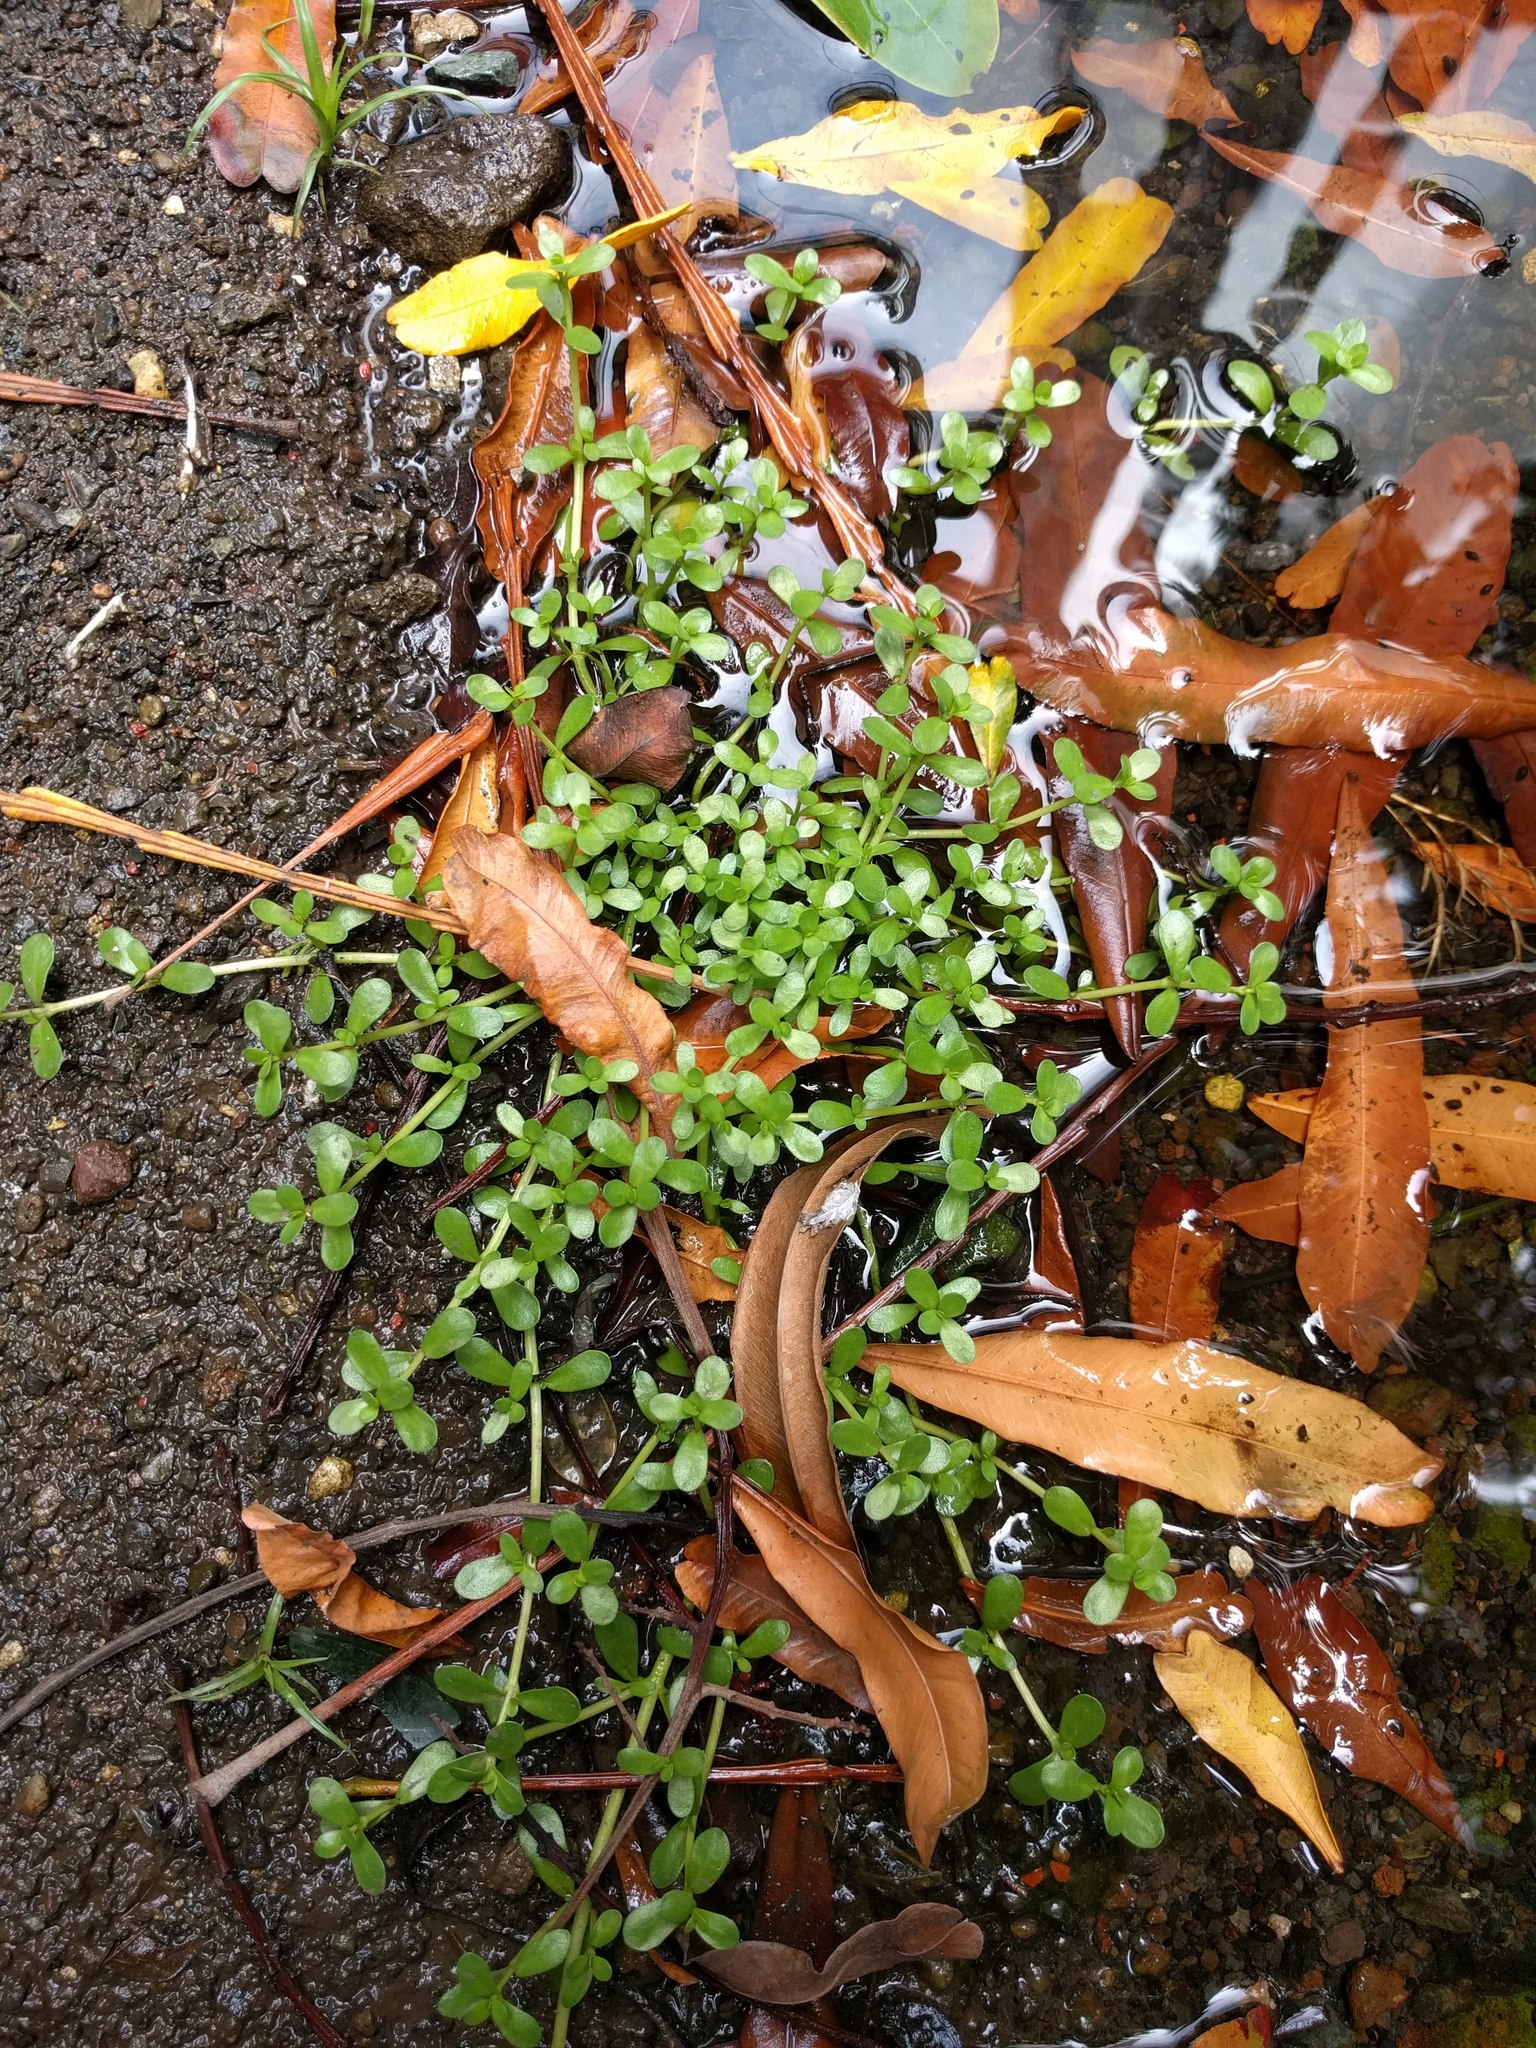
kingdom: Plantae
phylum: Tracheophyta
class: Magnoliopsida
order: Lamiales
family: Plantaginaceae
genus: Bacopa
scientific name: Bacopa monnieri
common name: Indian-pennywort
